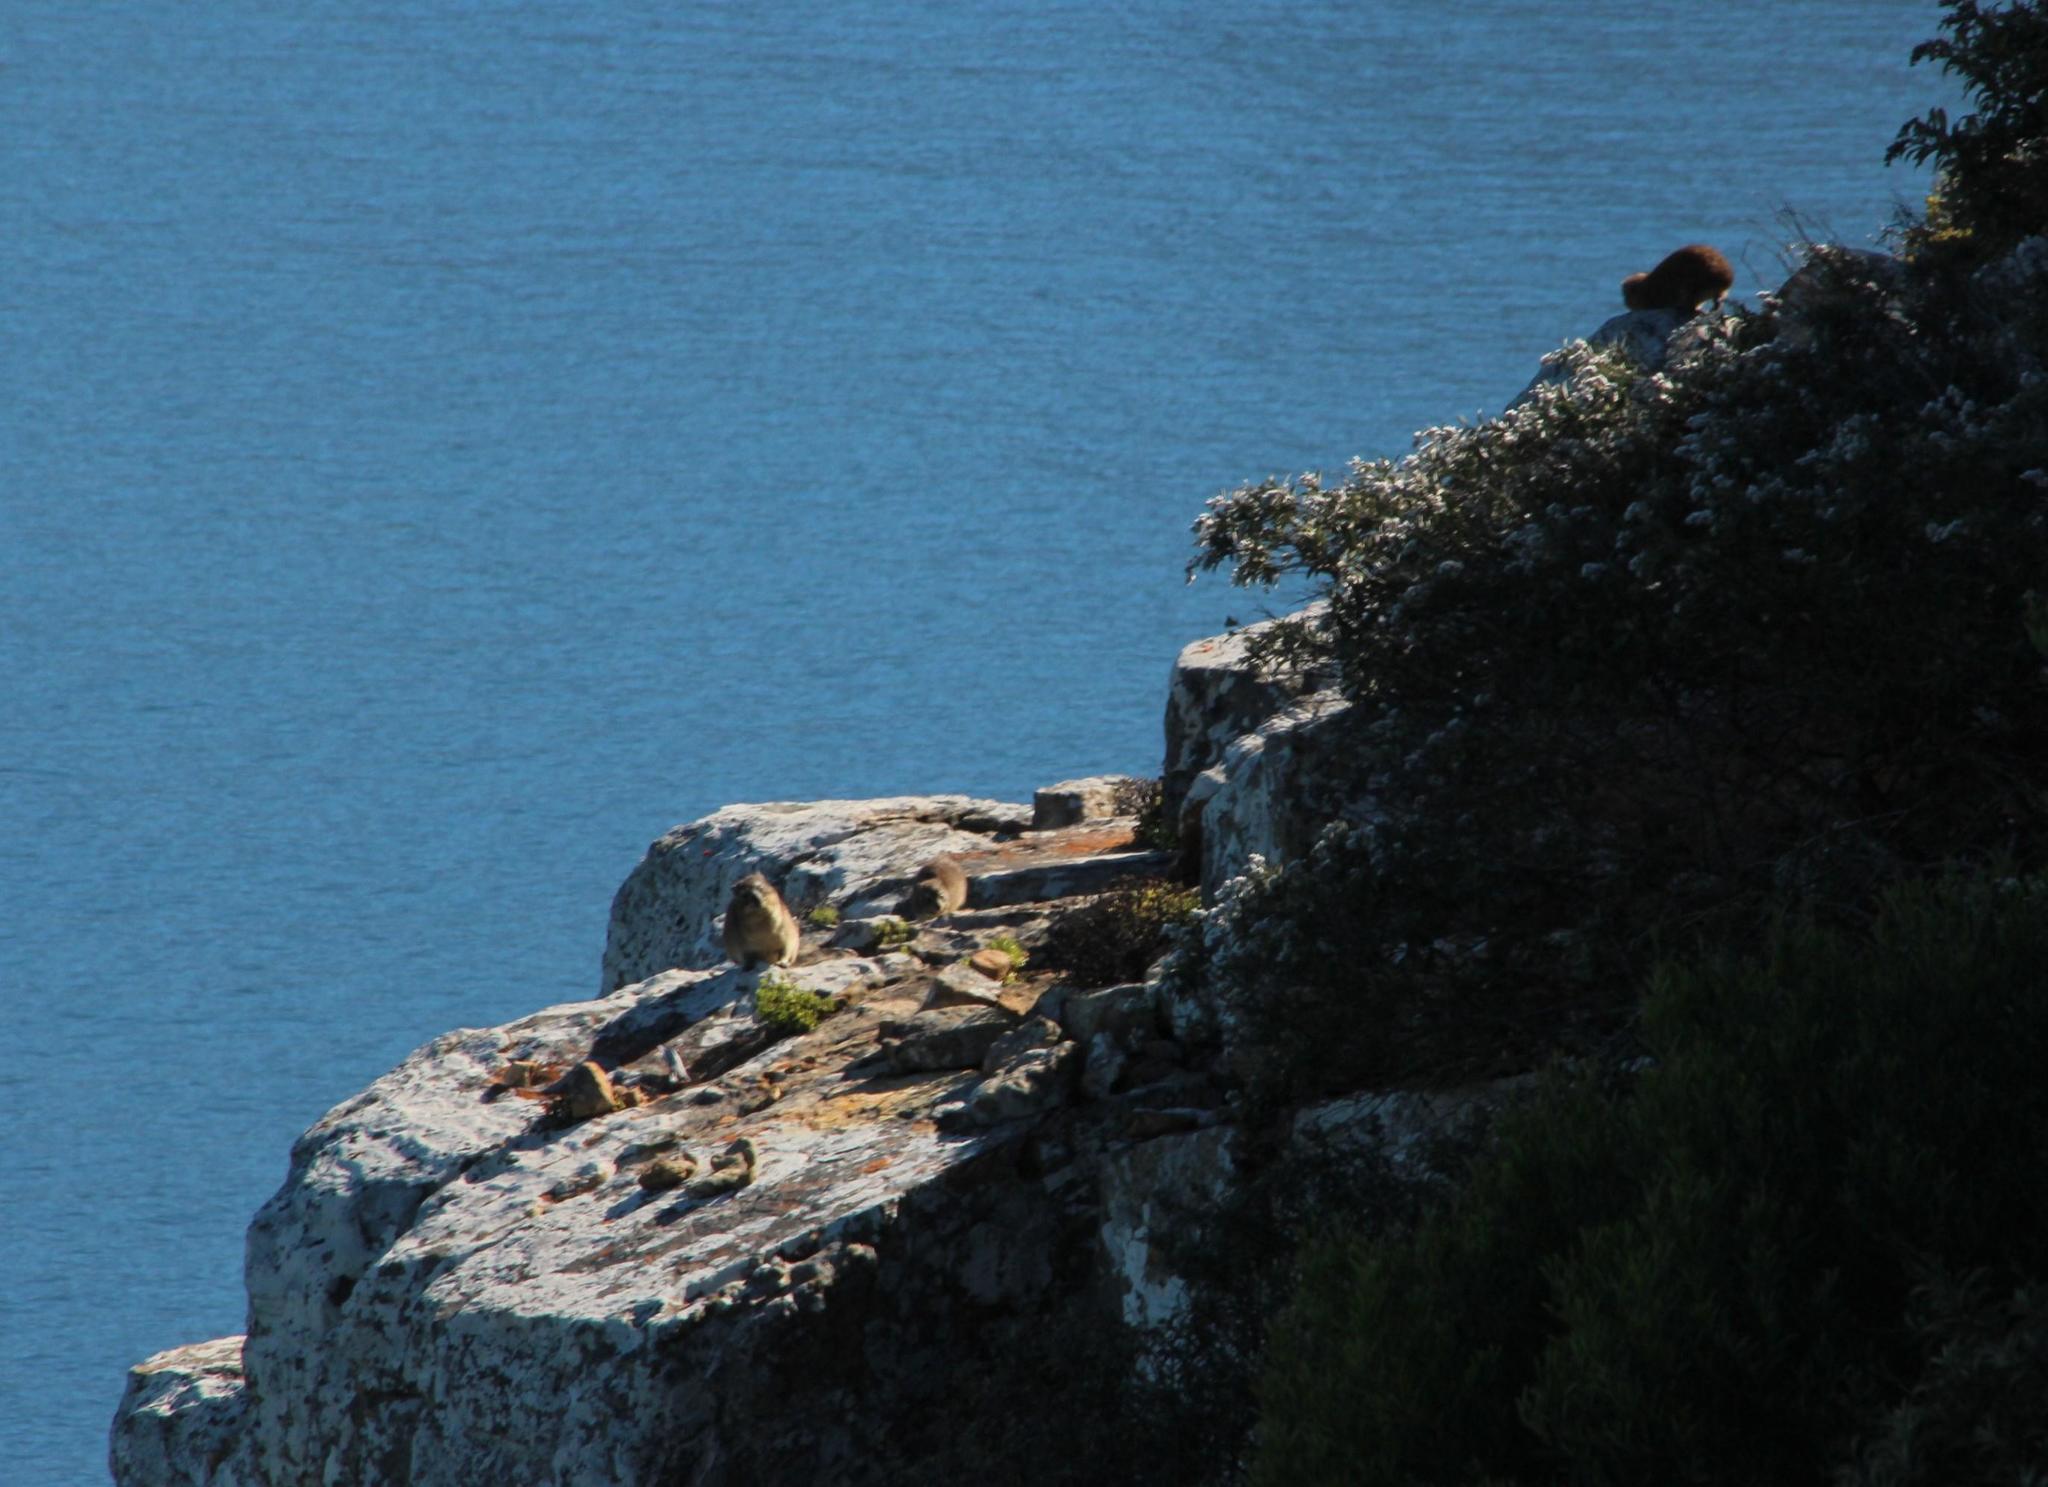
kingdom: Animalia
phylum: Chordata
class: Mammalia
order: Hyracoidea
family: Procaviidae
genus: Procavia
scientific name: Procavia capensis
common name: Rock hyrax
